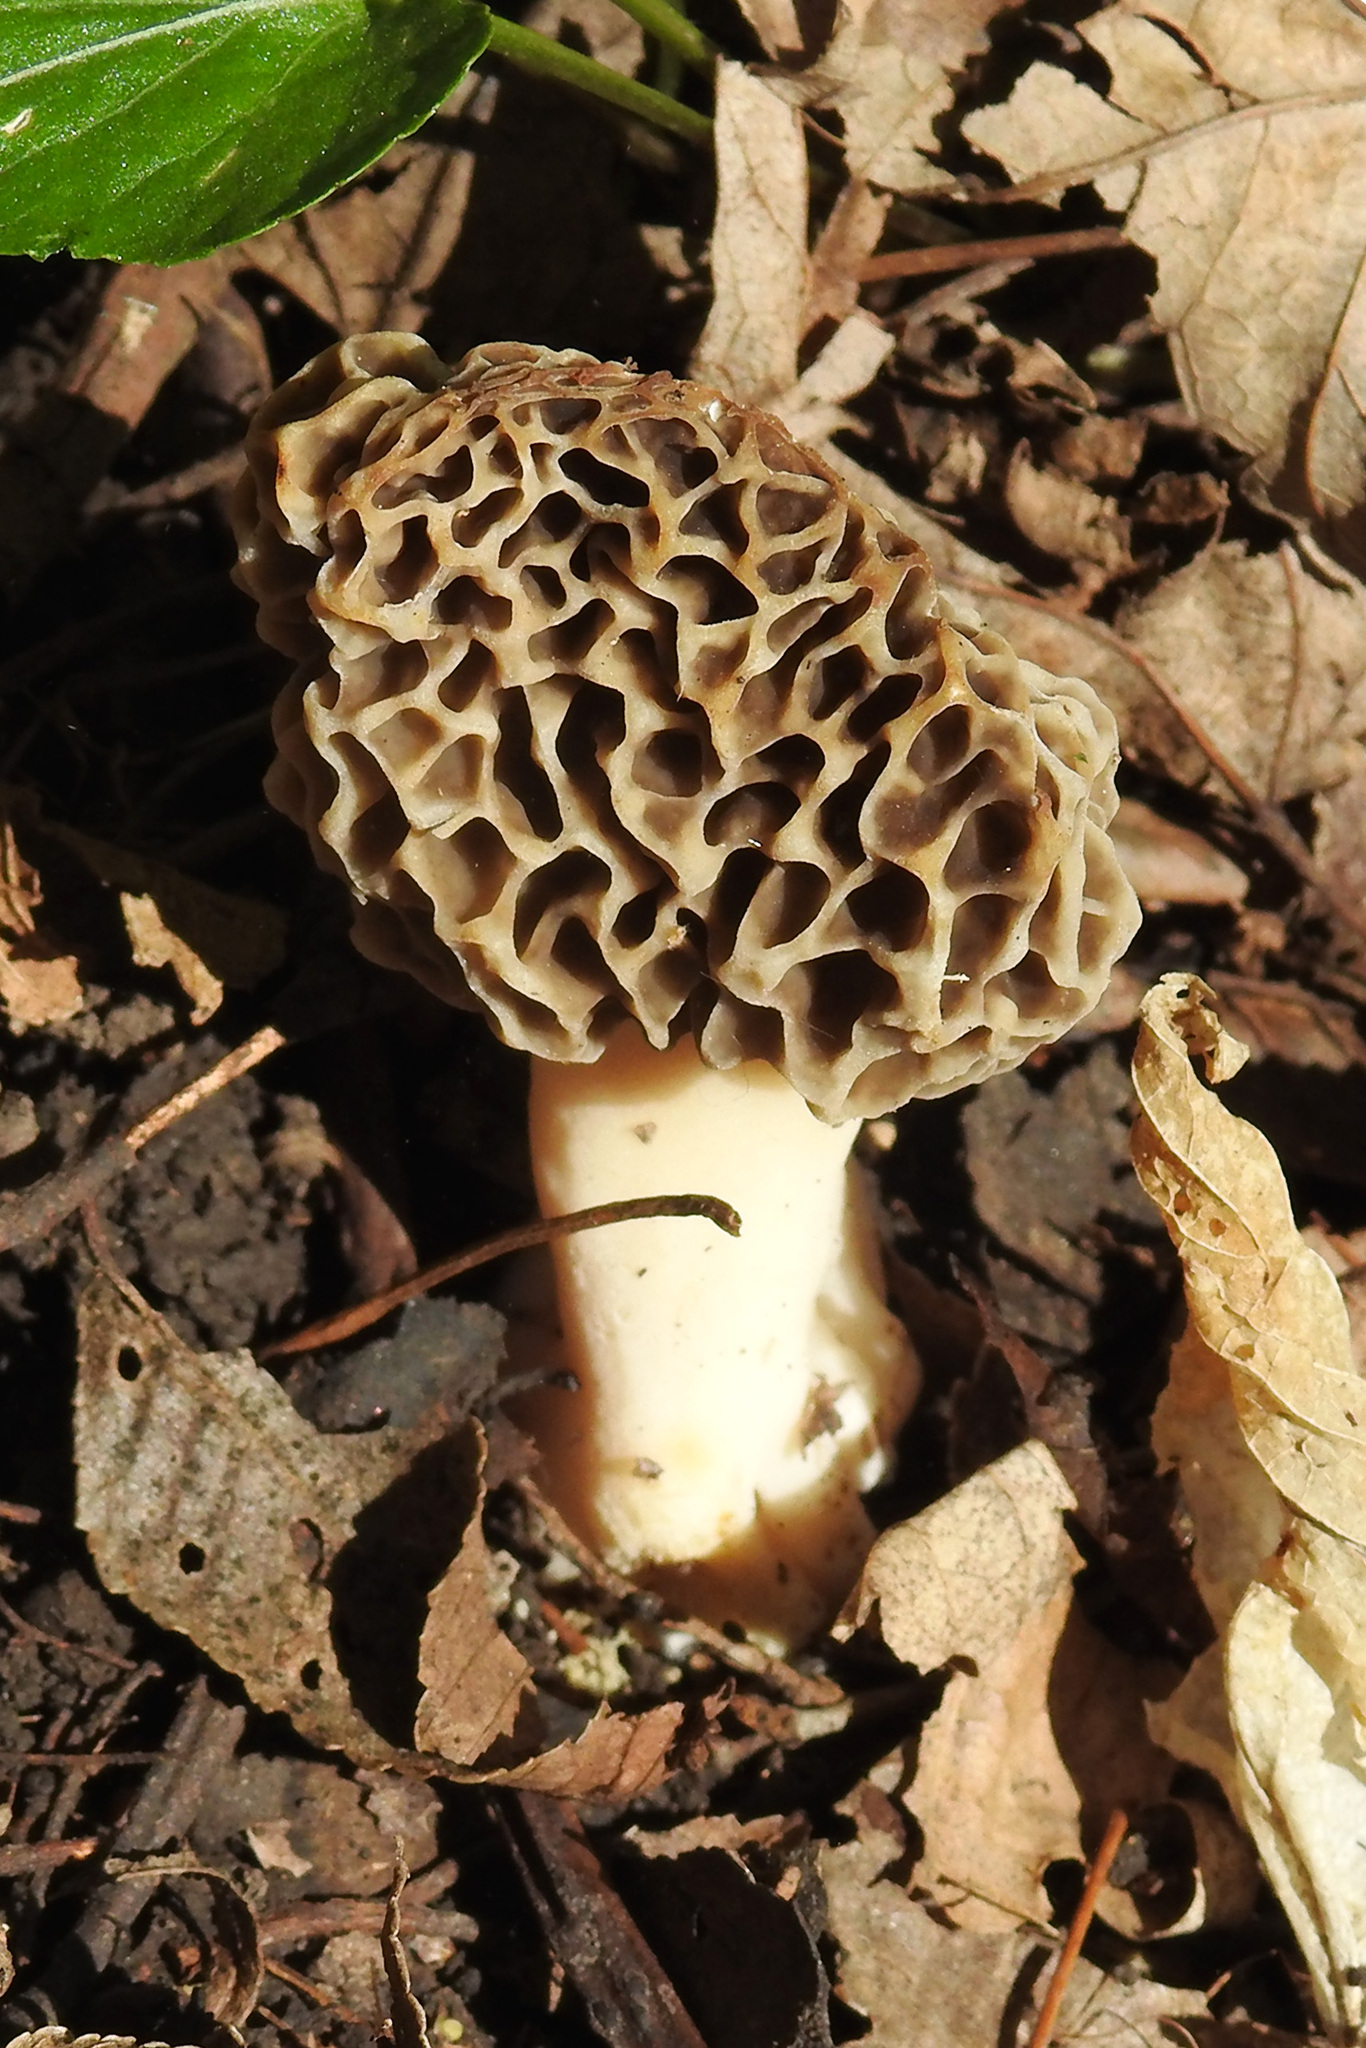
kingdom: Fungi
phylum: Ascomycota
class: Pezizomycetes
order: Pezizales
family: Morchellaceae
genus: Morchella
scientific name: Morchella americana
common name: White morel
